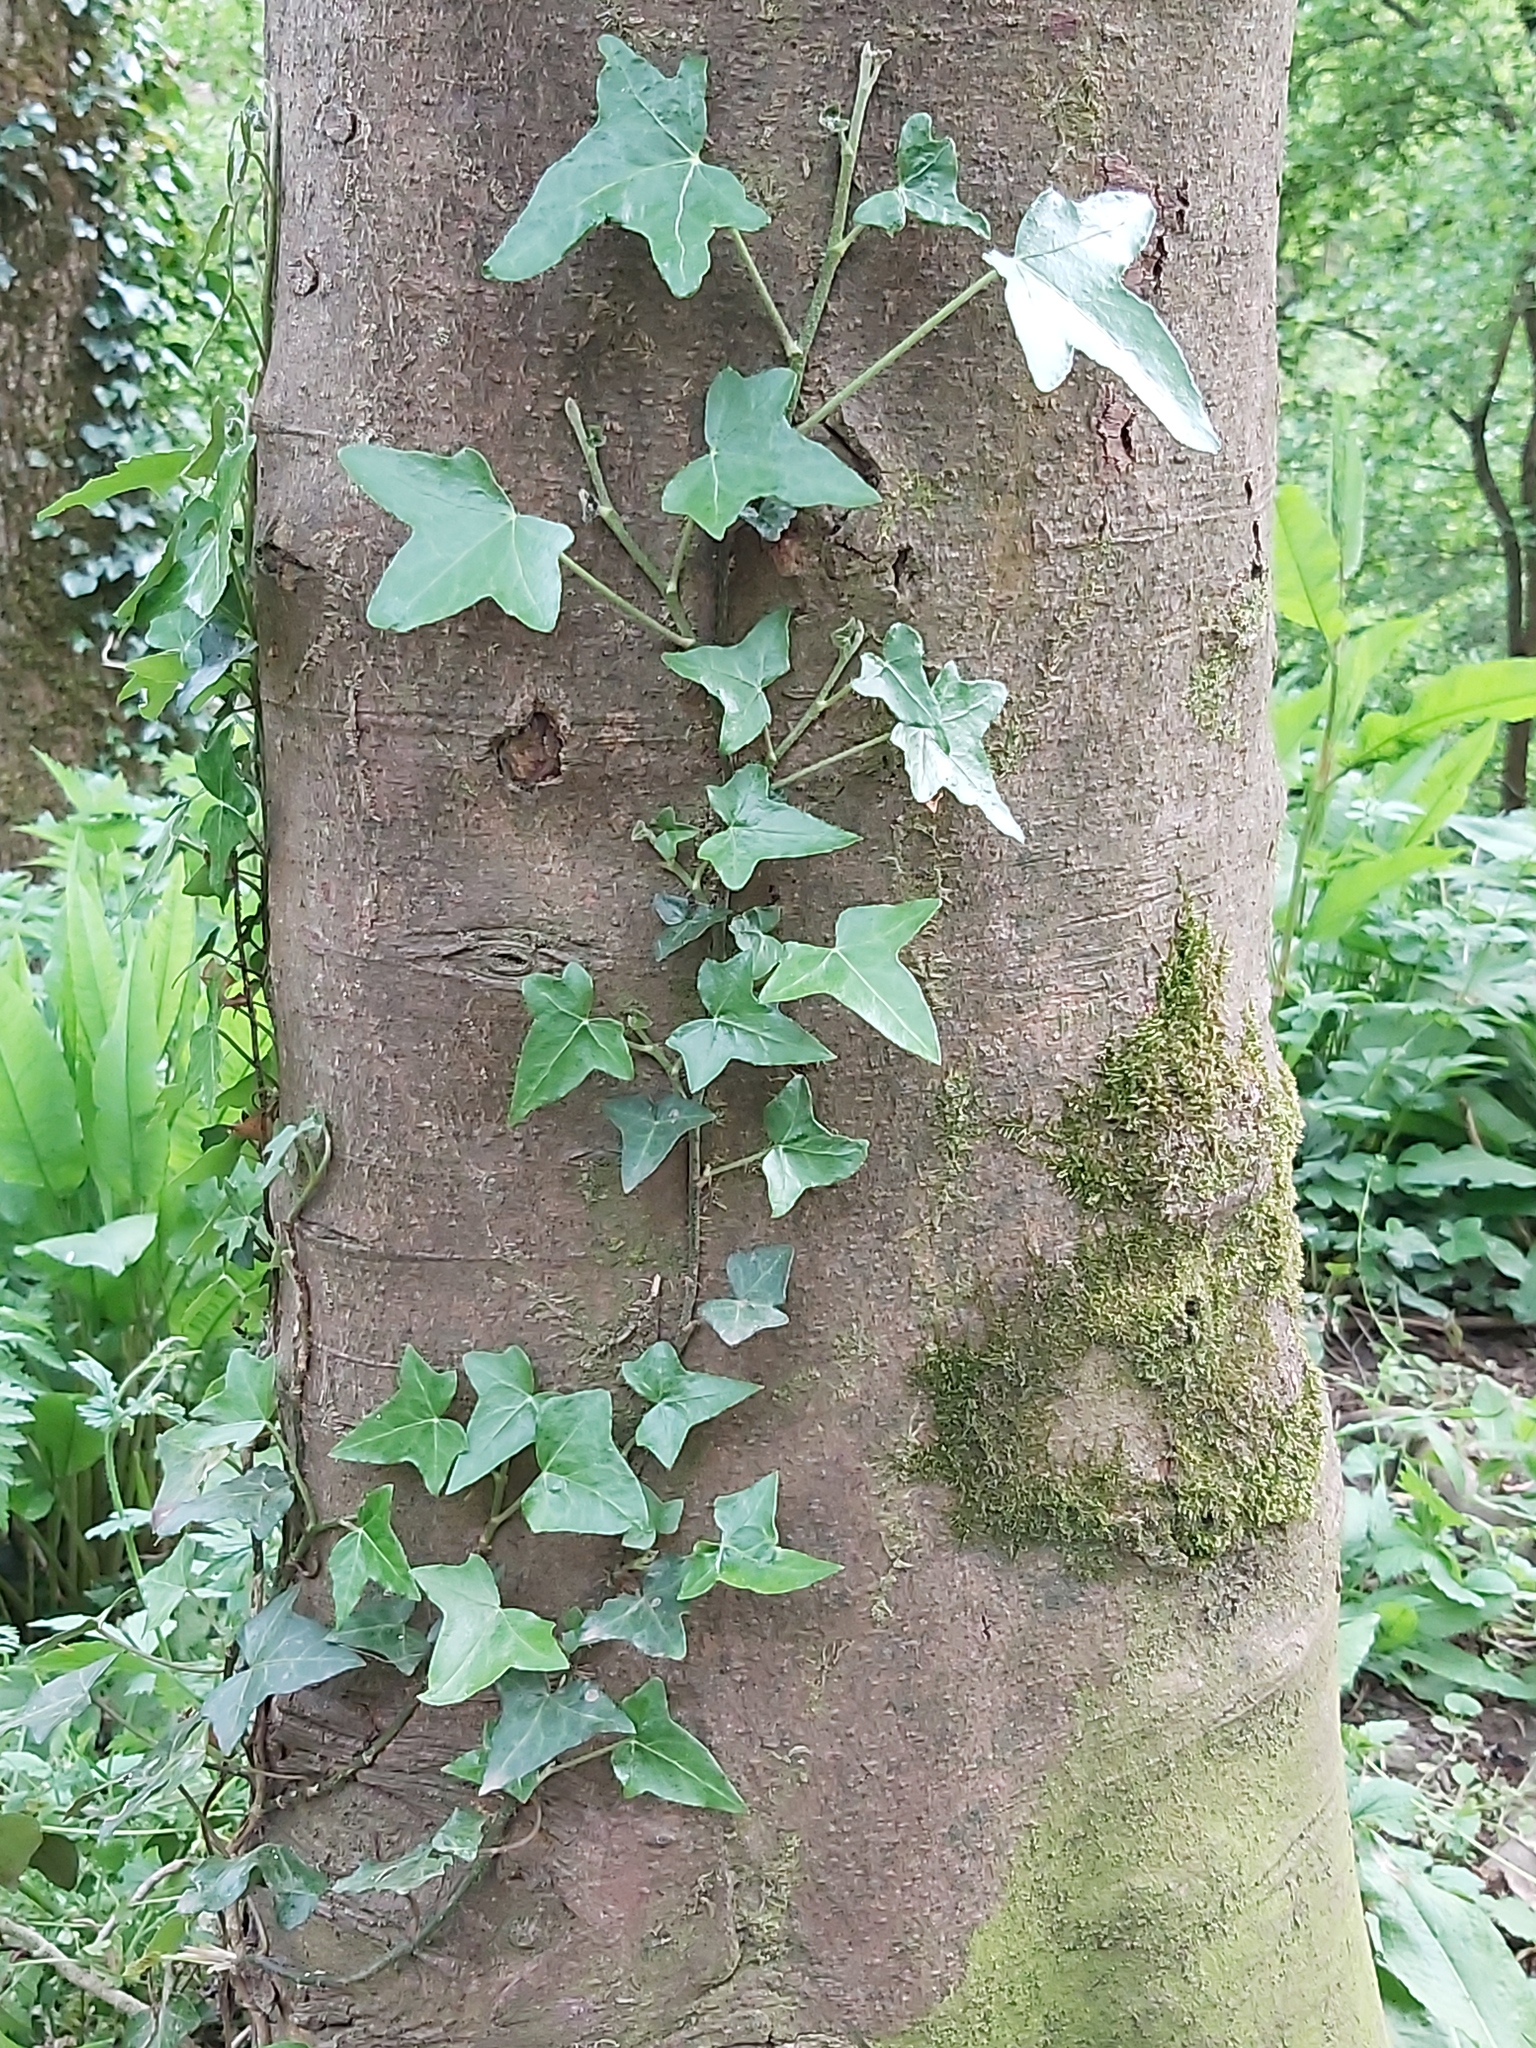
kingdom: Plantae
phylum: Tracheophyta
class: Magnoliopsida
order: Apiales
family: Araliaceae
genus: Hedera
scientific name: Hedera helix
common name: Ivy
